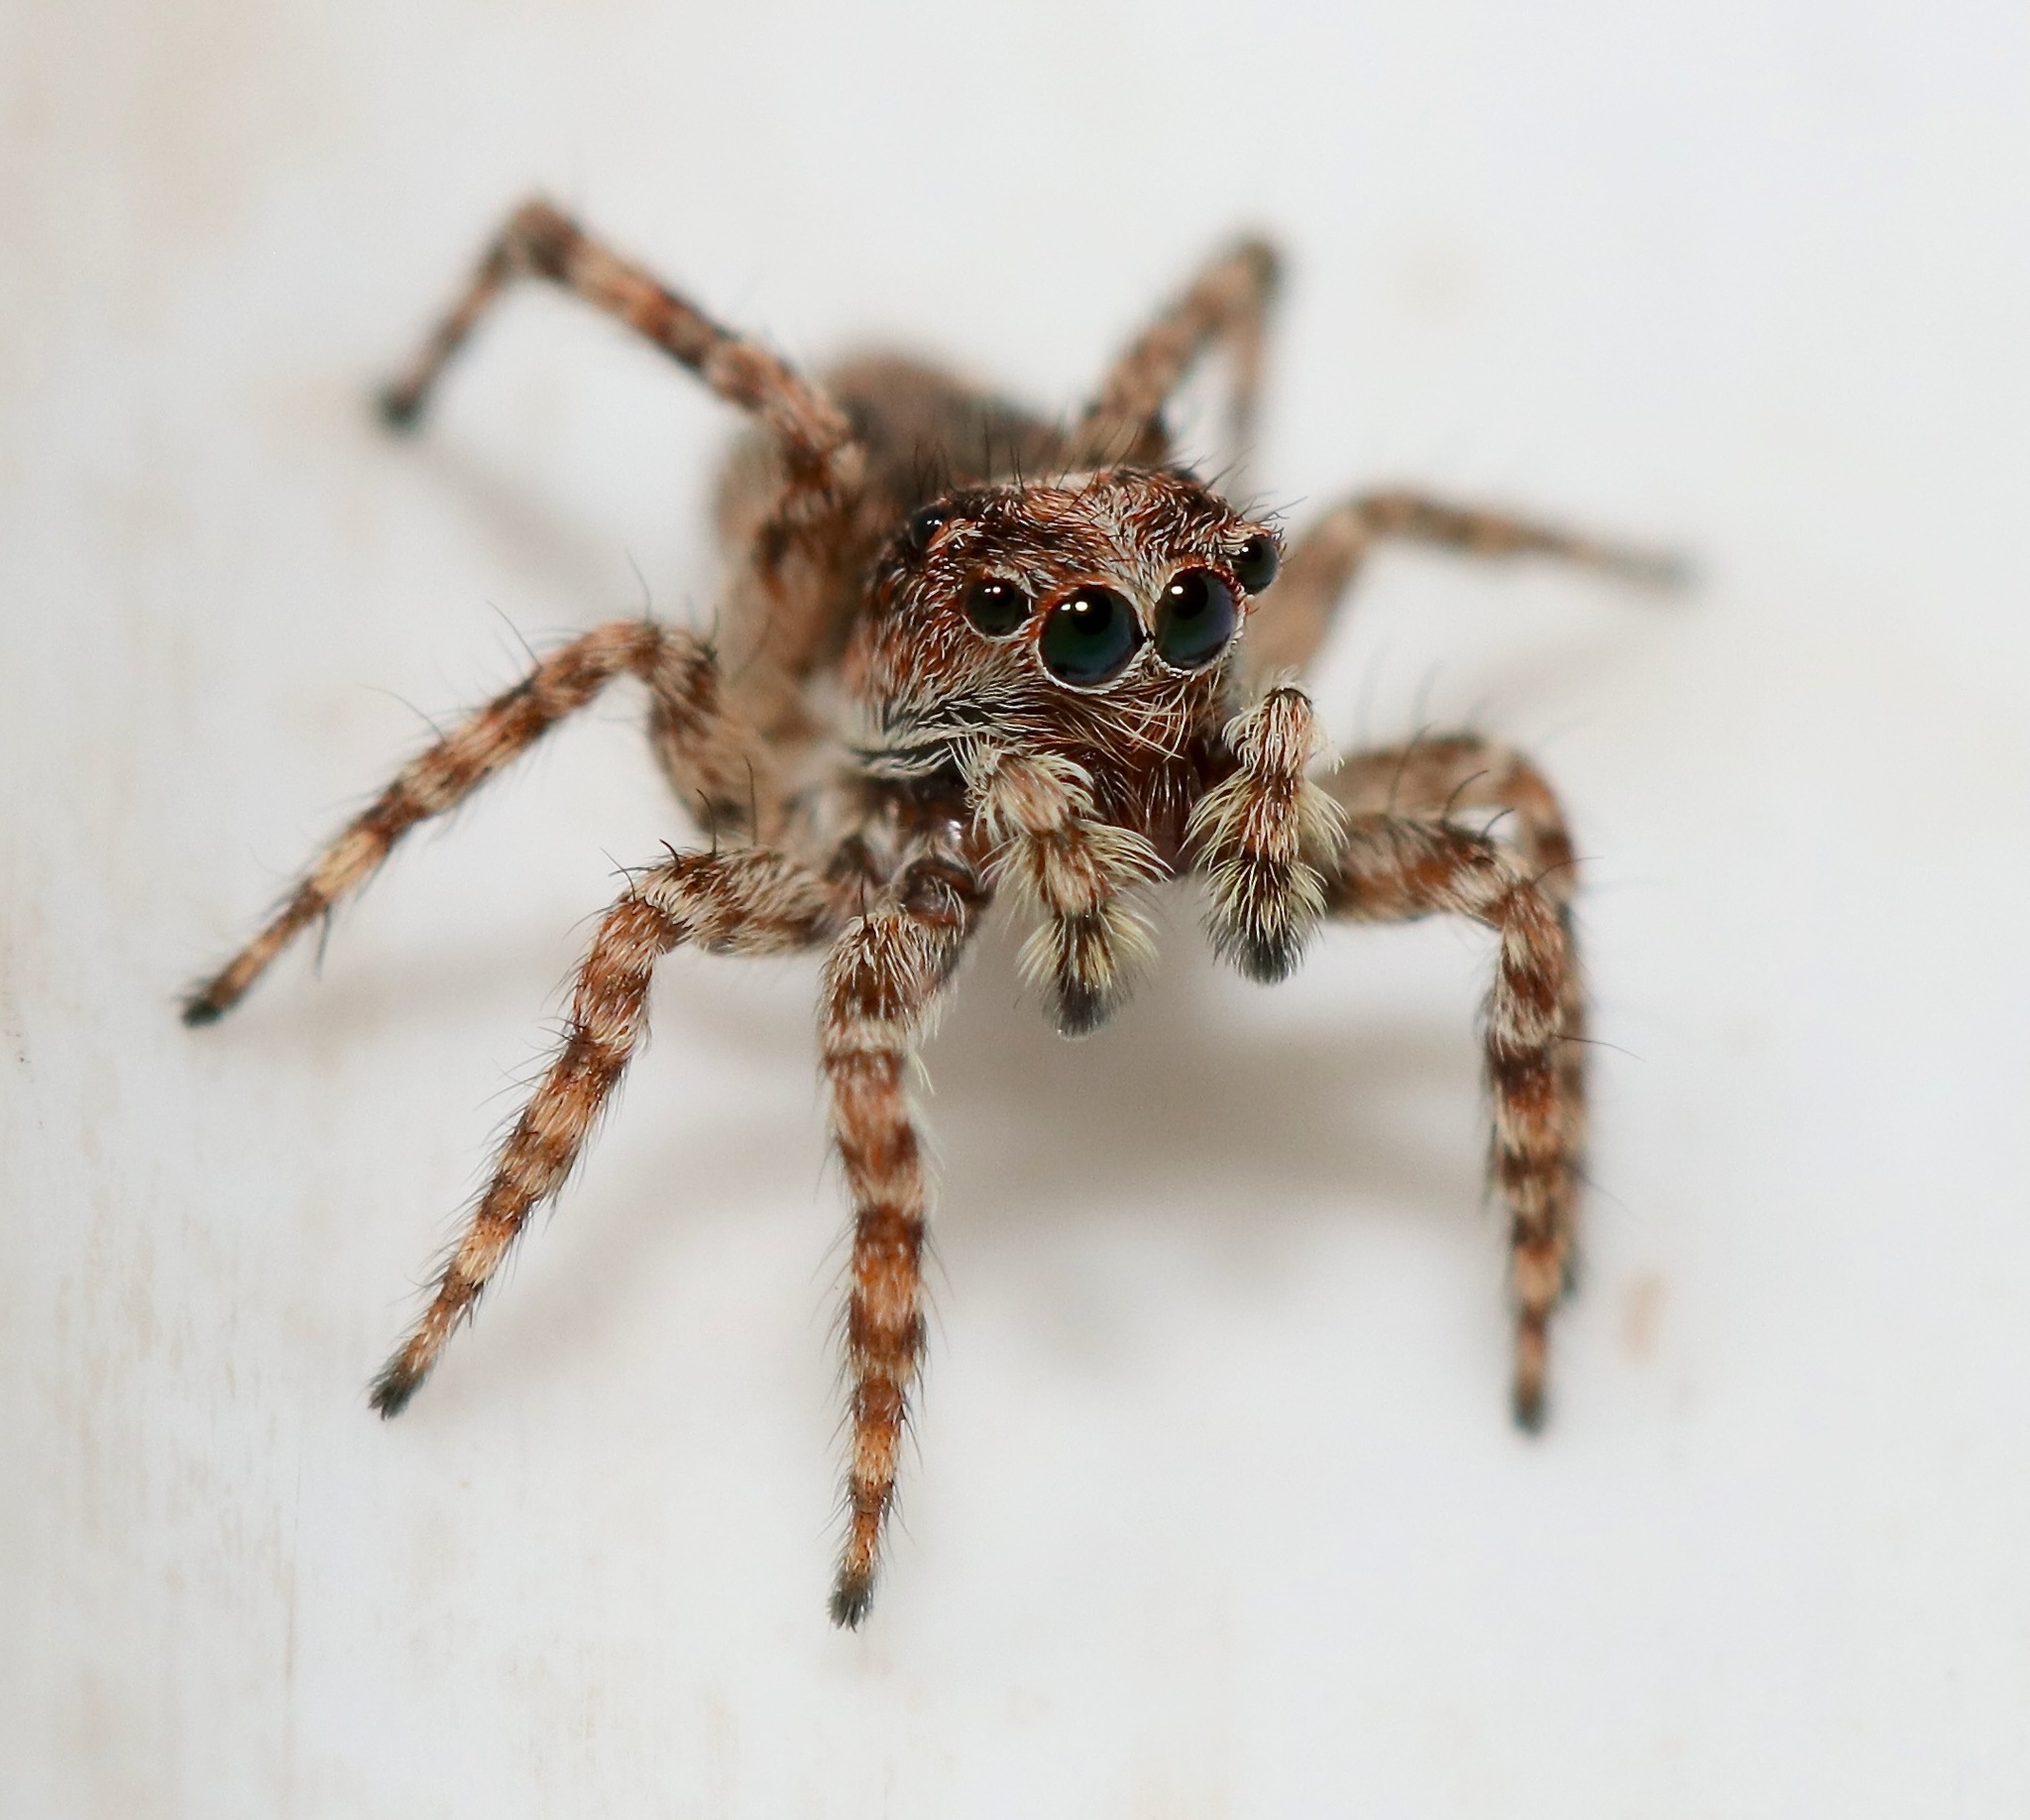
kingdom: Animalia
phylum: Arthropoda
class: Arachnida
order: Araneae
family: Salticidae
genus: Attulus
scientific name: Attulus fasciger
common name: Asiatic wall jumping spider
